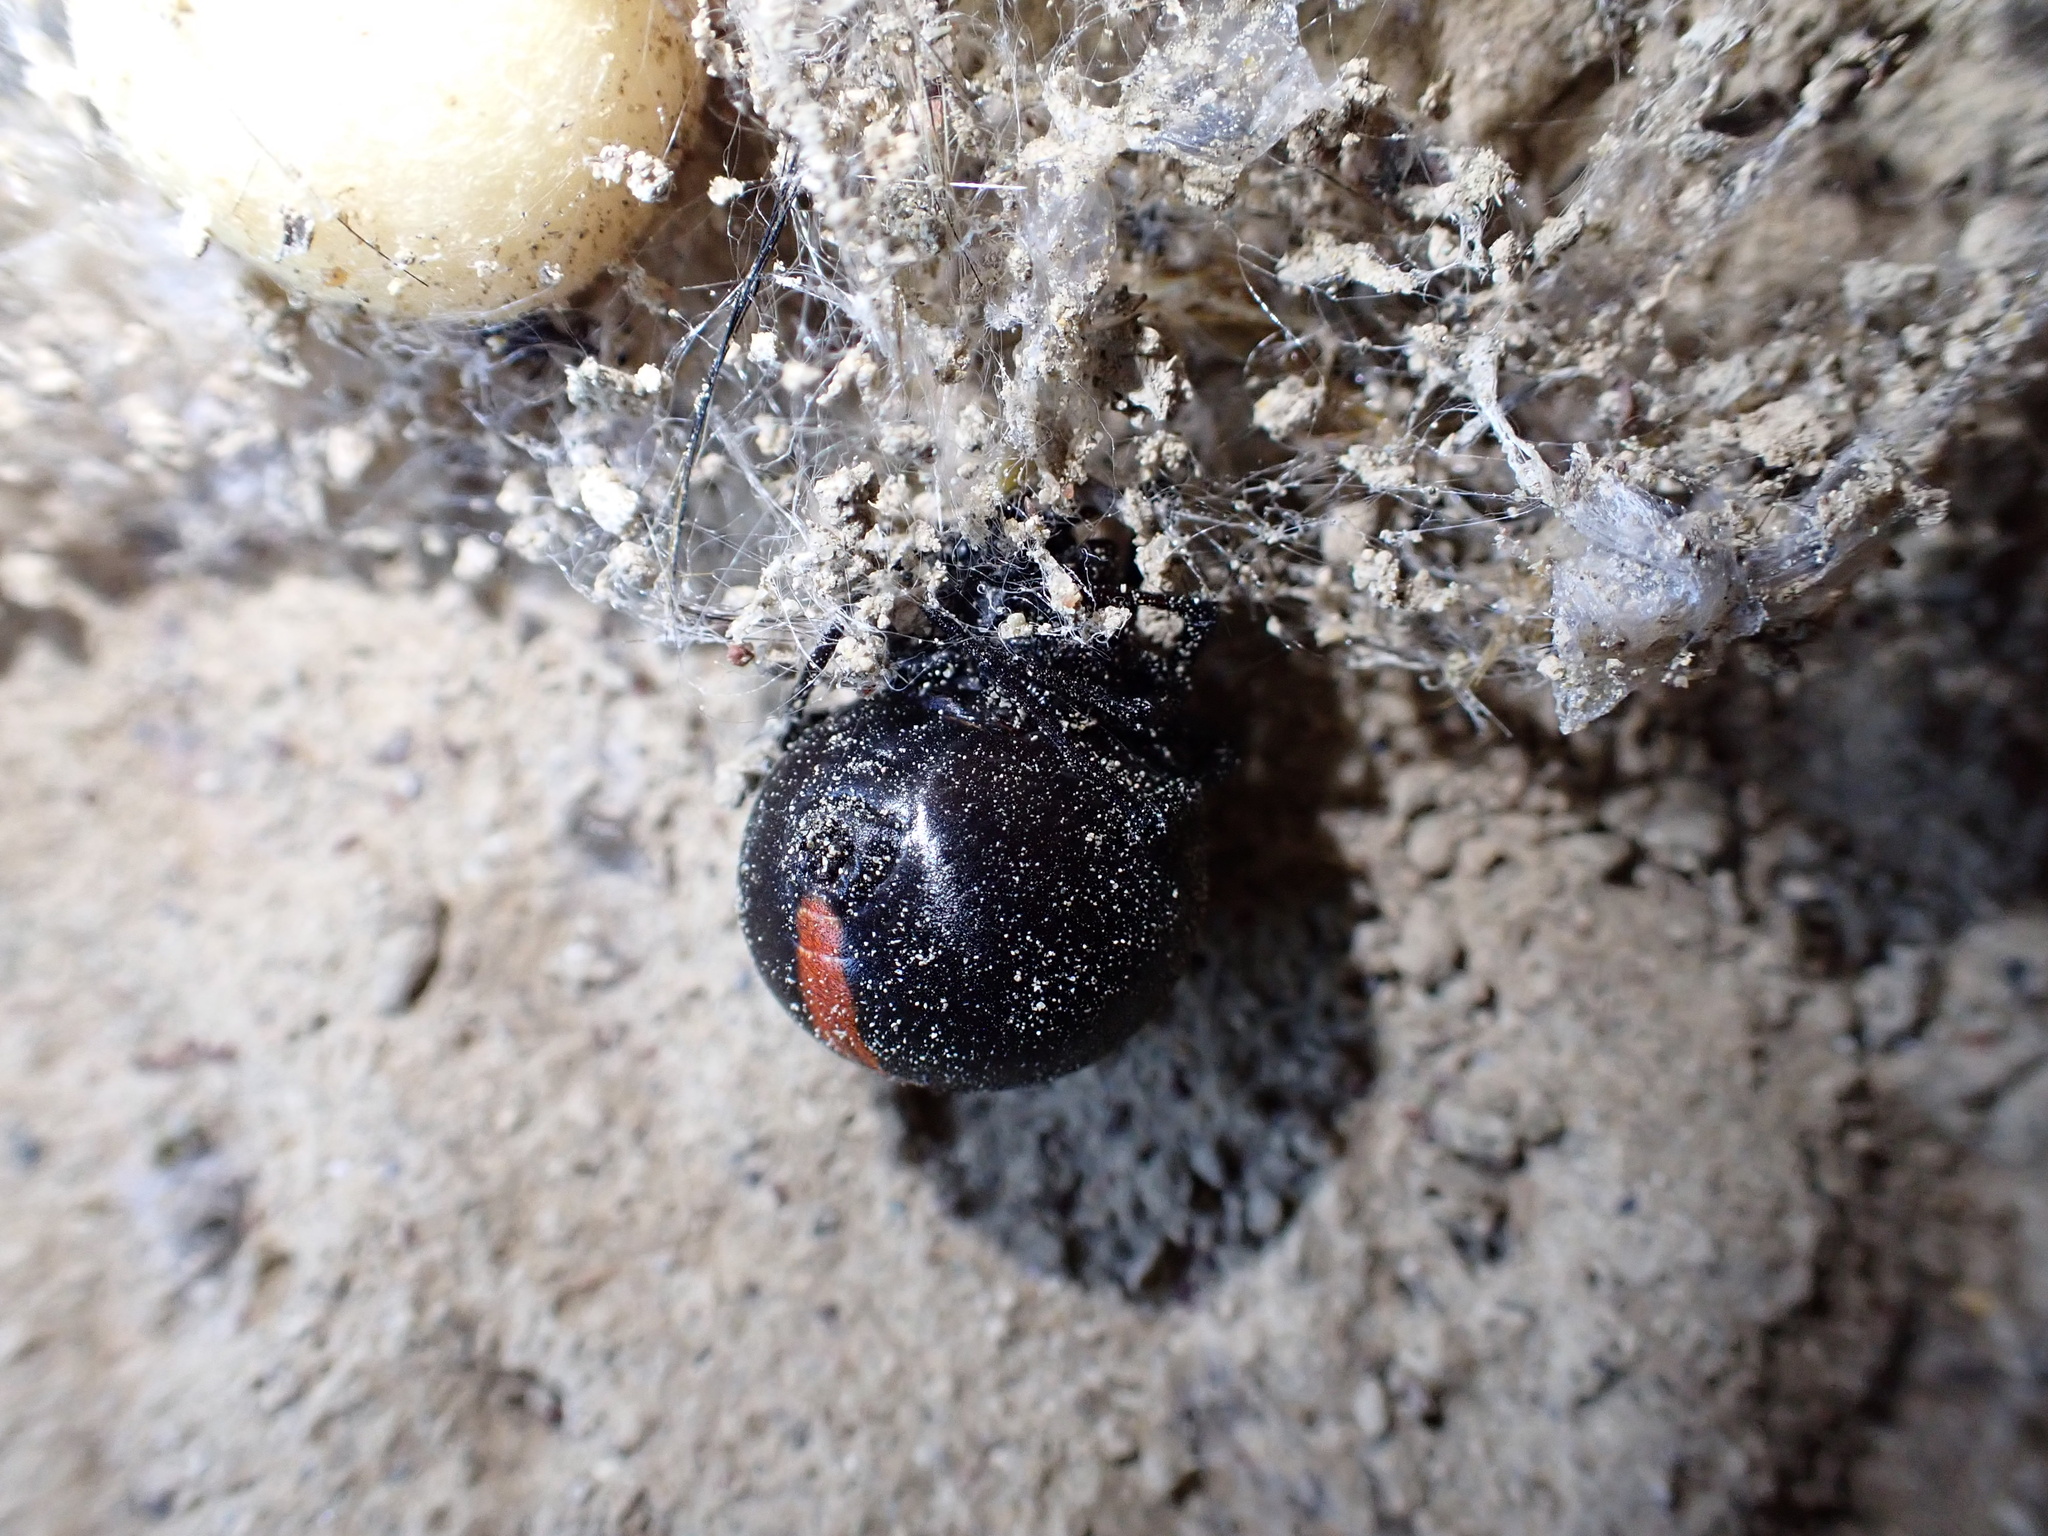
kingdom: Animalia
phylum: Arthropoda
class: Arachnida
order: Araneae
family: Theridiidae
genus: Latrodectus
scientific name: Latrodectus cinctus
